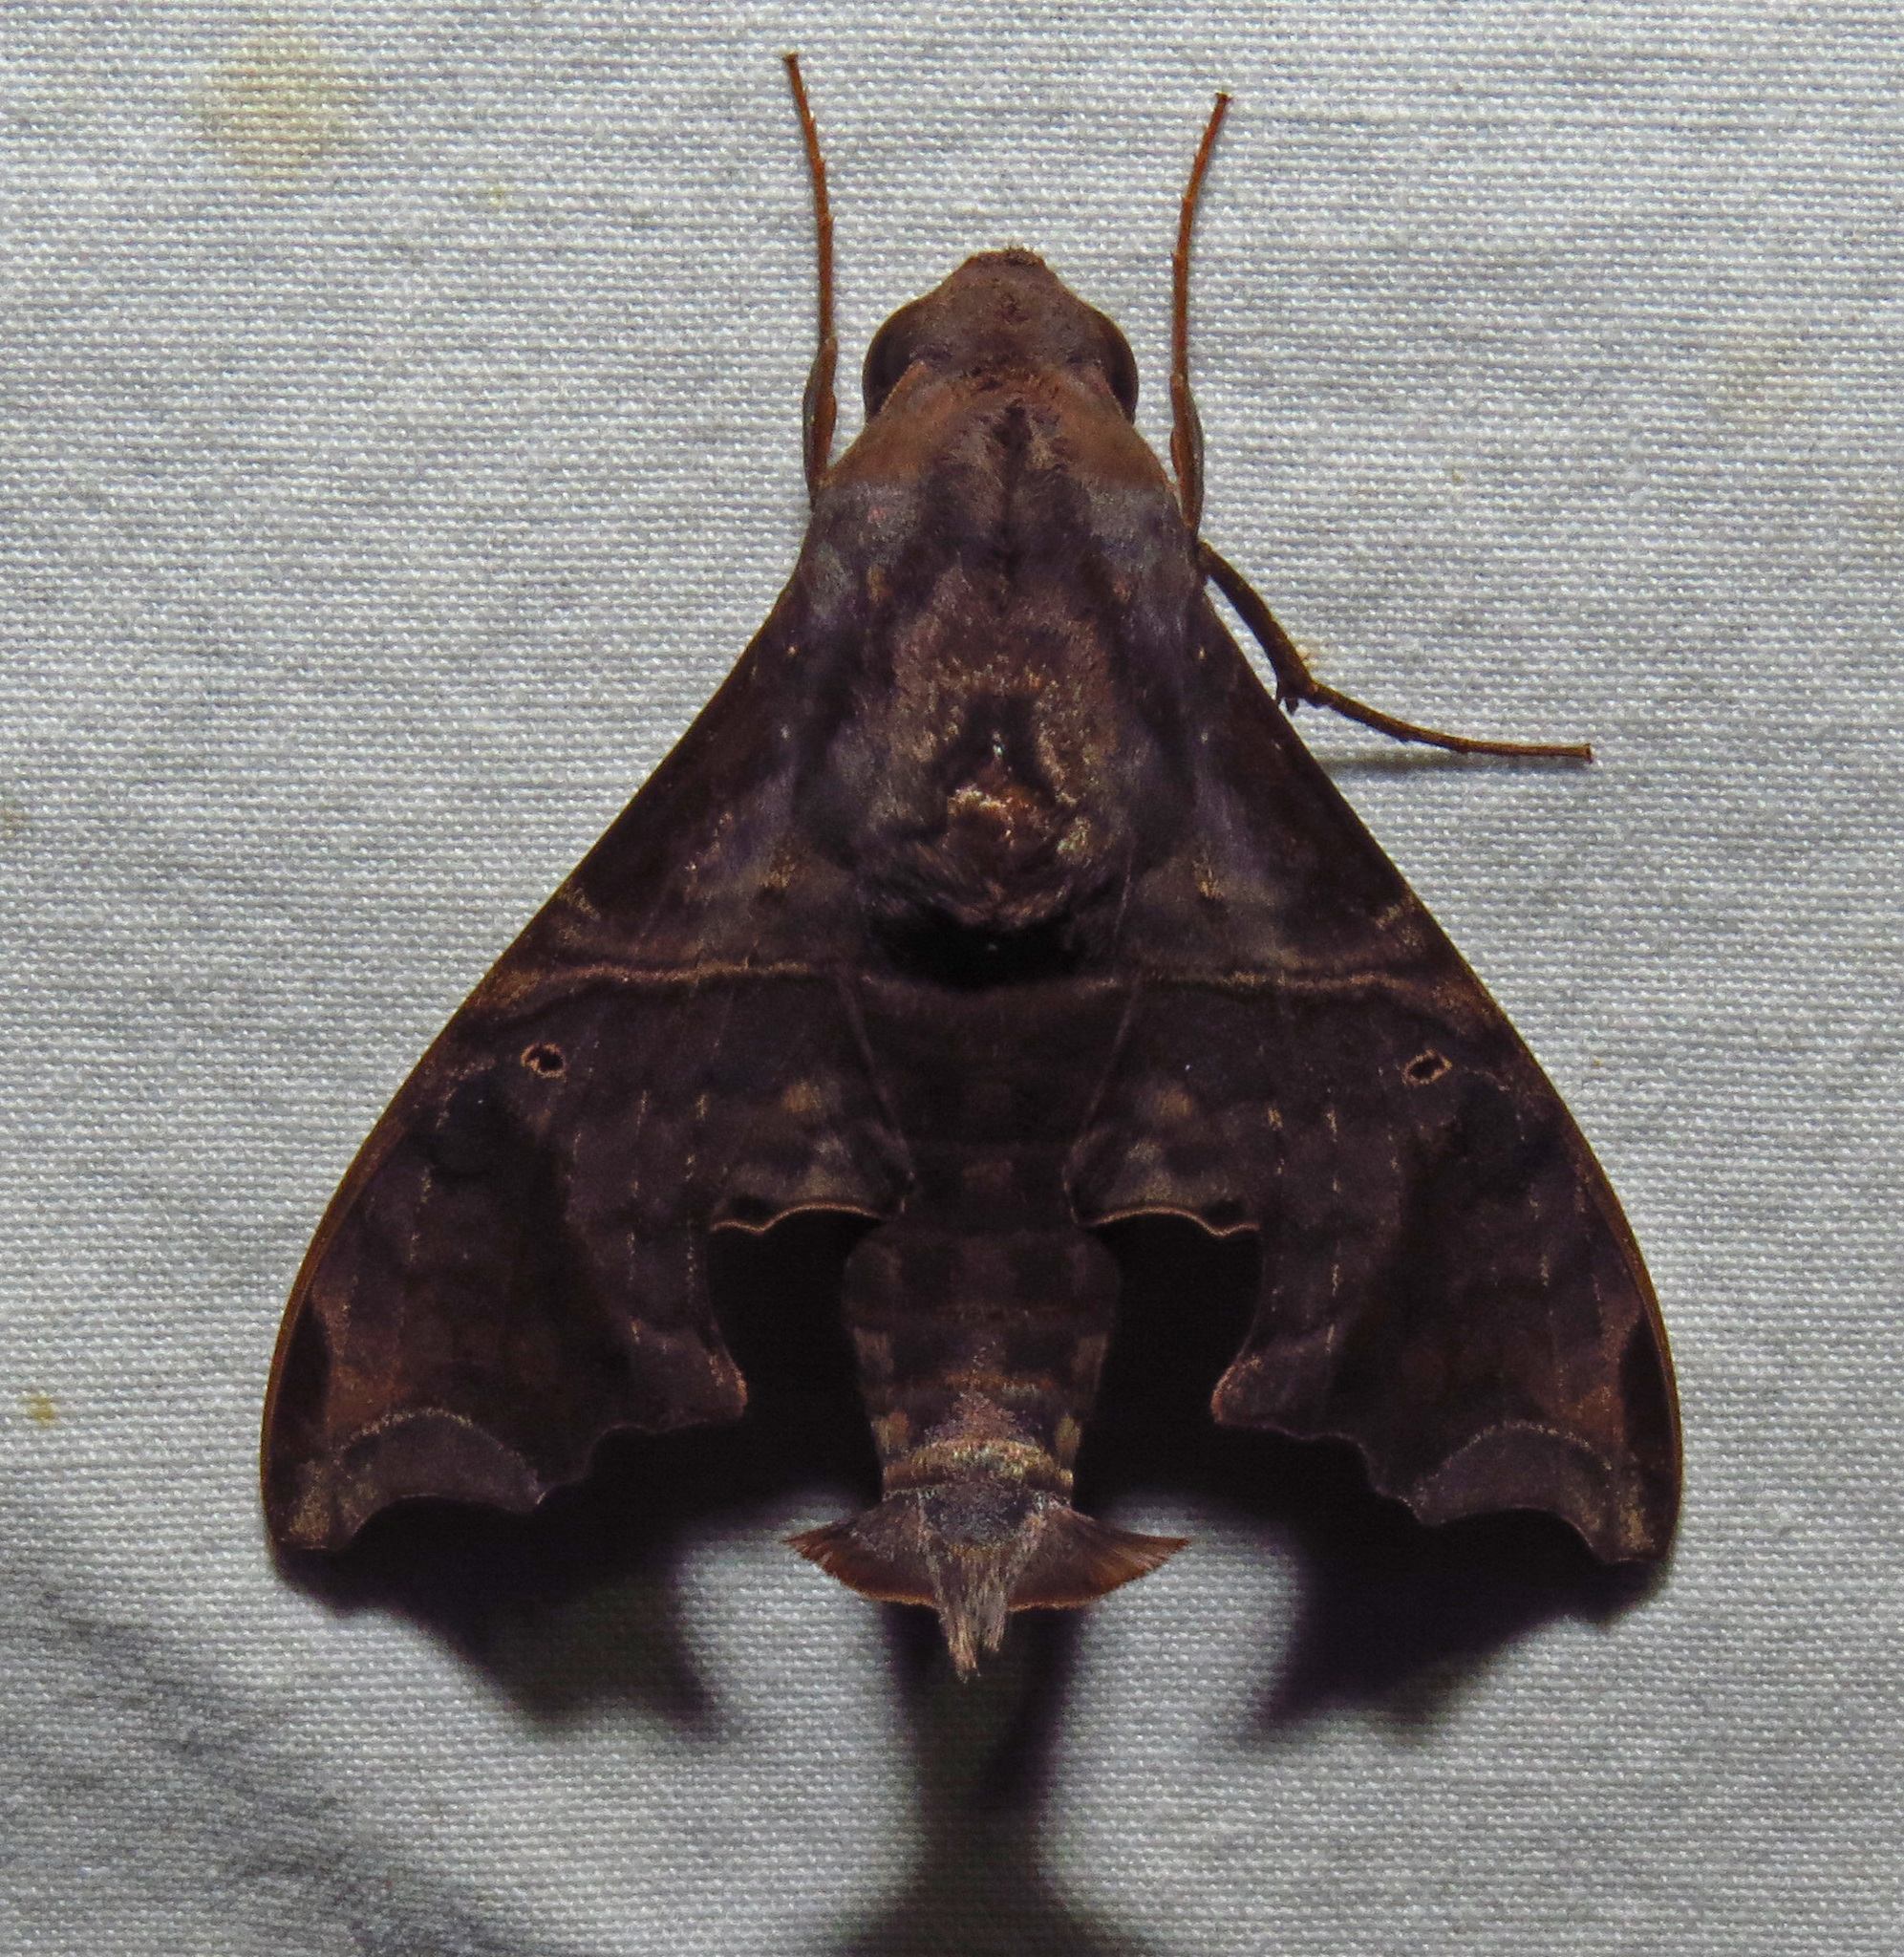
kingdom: Animalia
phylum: Arthropoda
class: Insecta
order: Lepidoptera
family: Sphingidae
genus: Enyo
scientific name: Enyo lugubris
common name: Mournful sphinx
